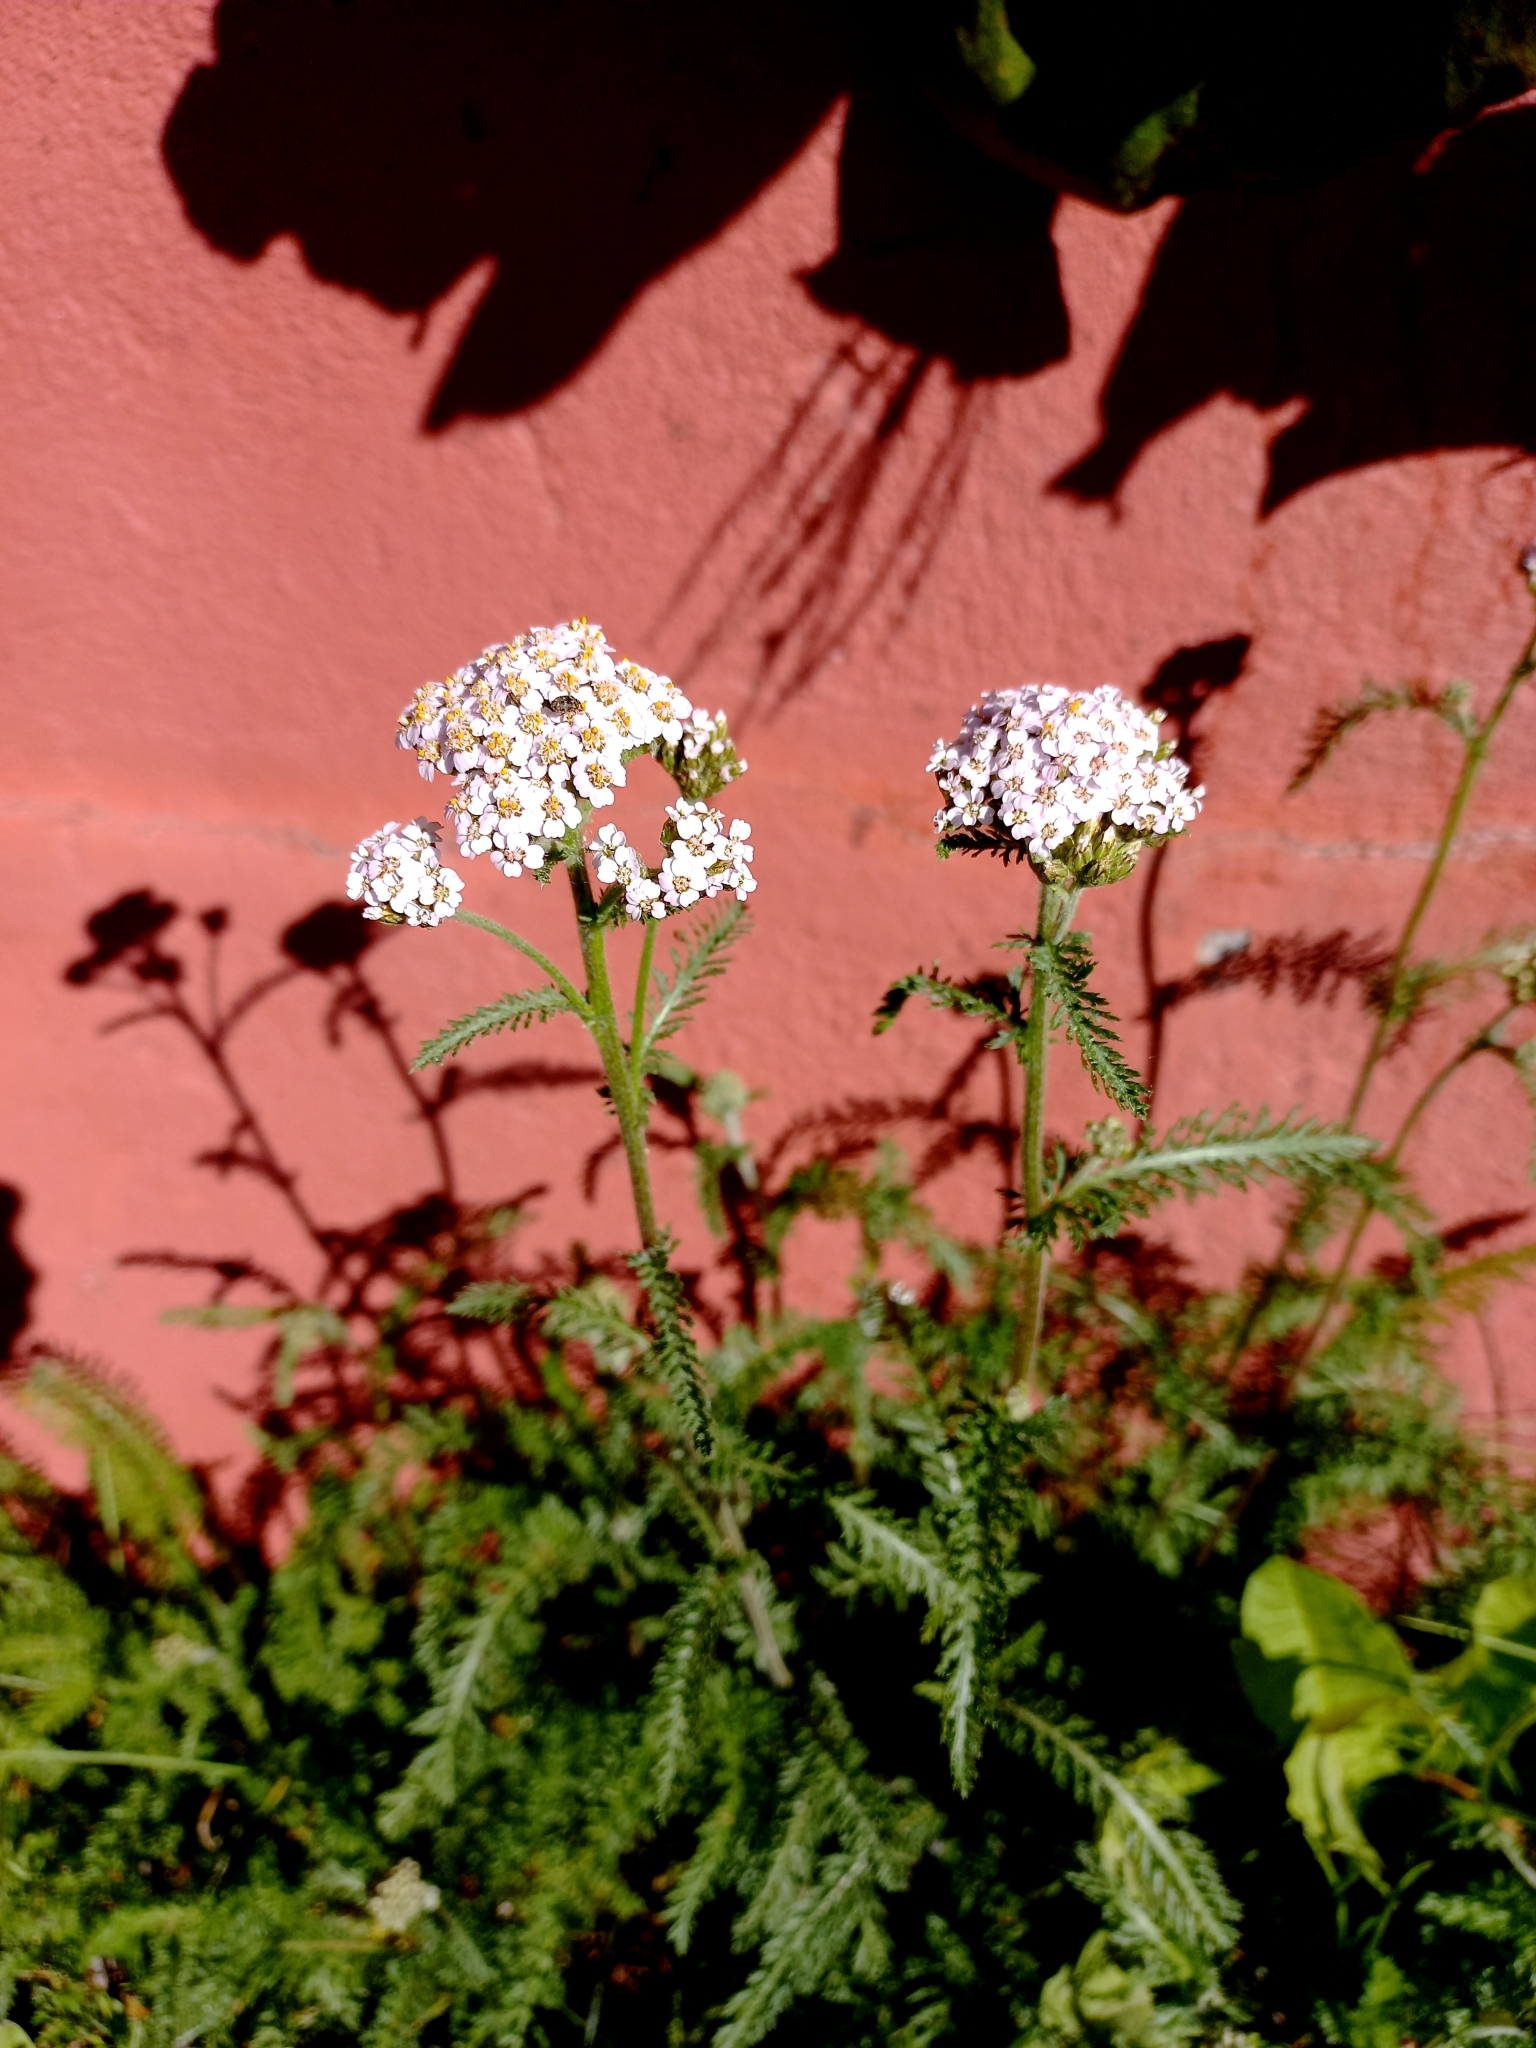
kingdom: Plantae
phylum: Tracheophyta
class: Magnoliopsida
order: Asterales
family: Asteraceae
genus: Achillea
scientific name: Achillea millefolium
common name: Yarrow
